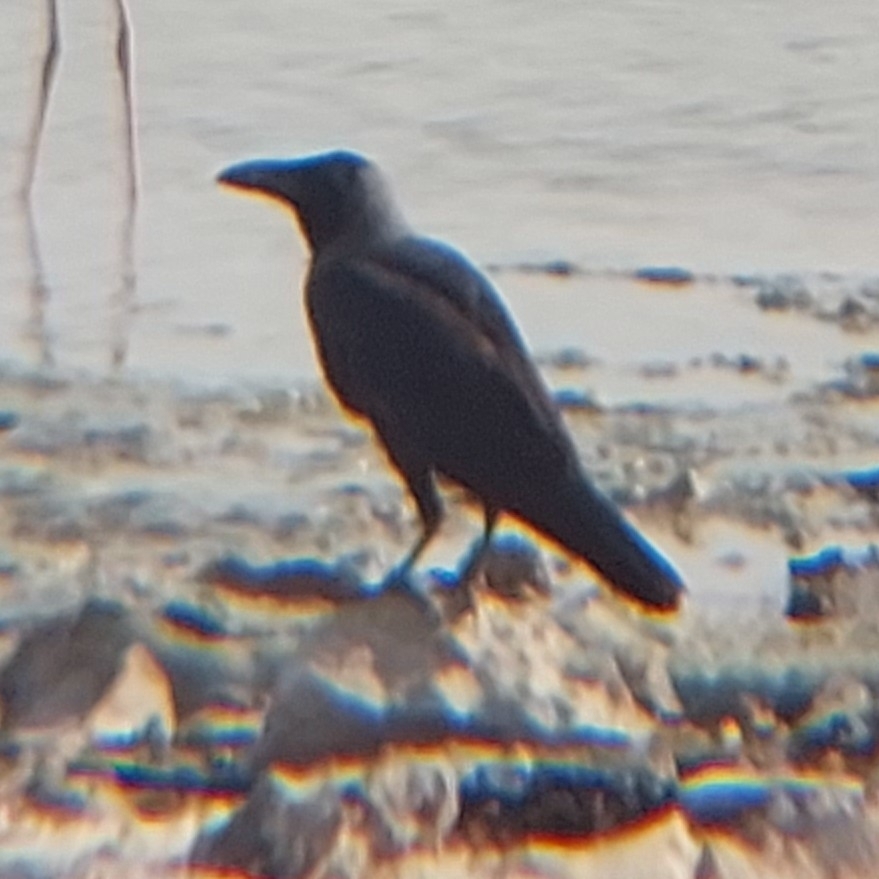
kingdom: Animalia
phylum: Chordata
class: Aves
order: Passeriformes
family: Corvidae
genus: Corvus
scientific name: Corvus splendens
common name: House crow
